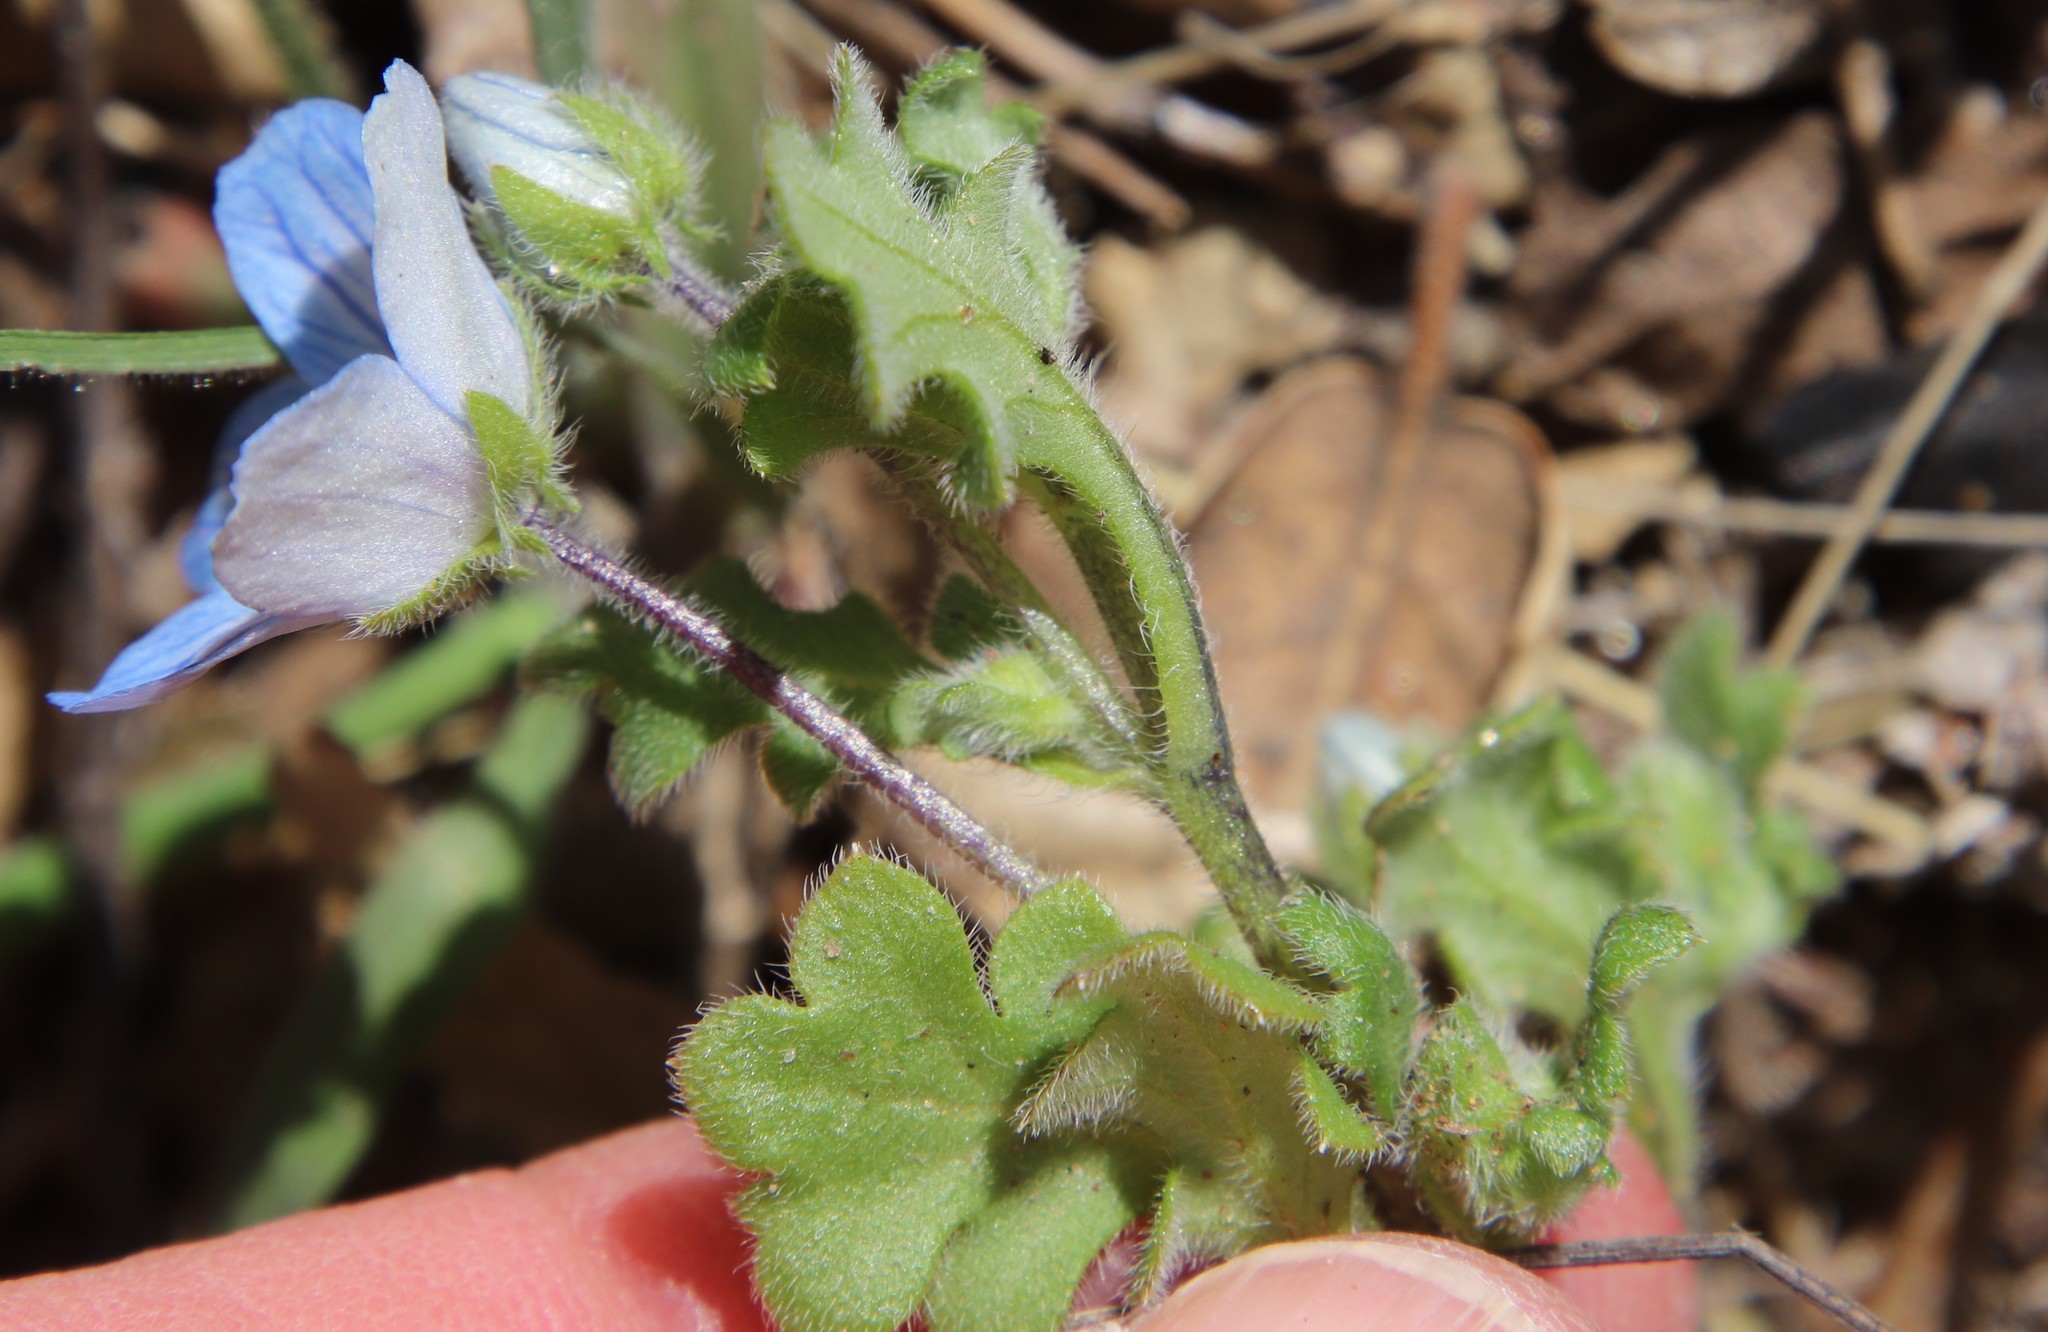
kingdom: Plantae
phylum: Tracheophyta
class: Magnoliopsida
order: Boraginales
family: Hydrophyllaceae
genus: Nemophila
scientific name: Nemophila menziesii
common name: Baby's-blue-eyes
